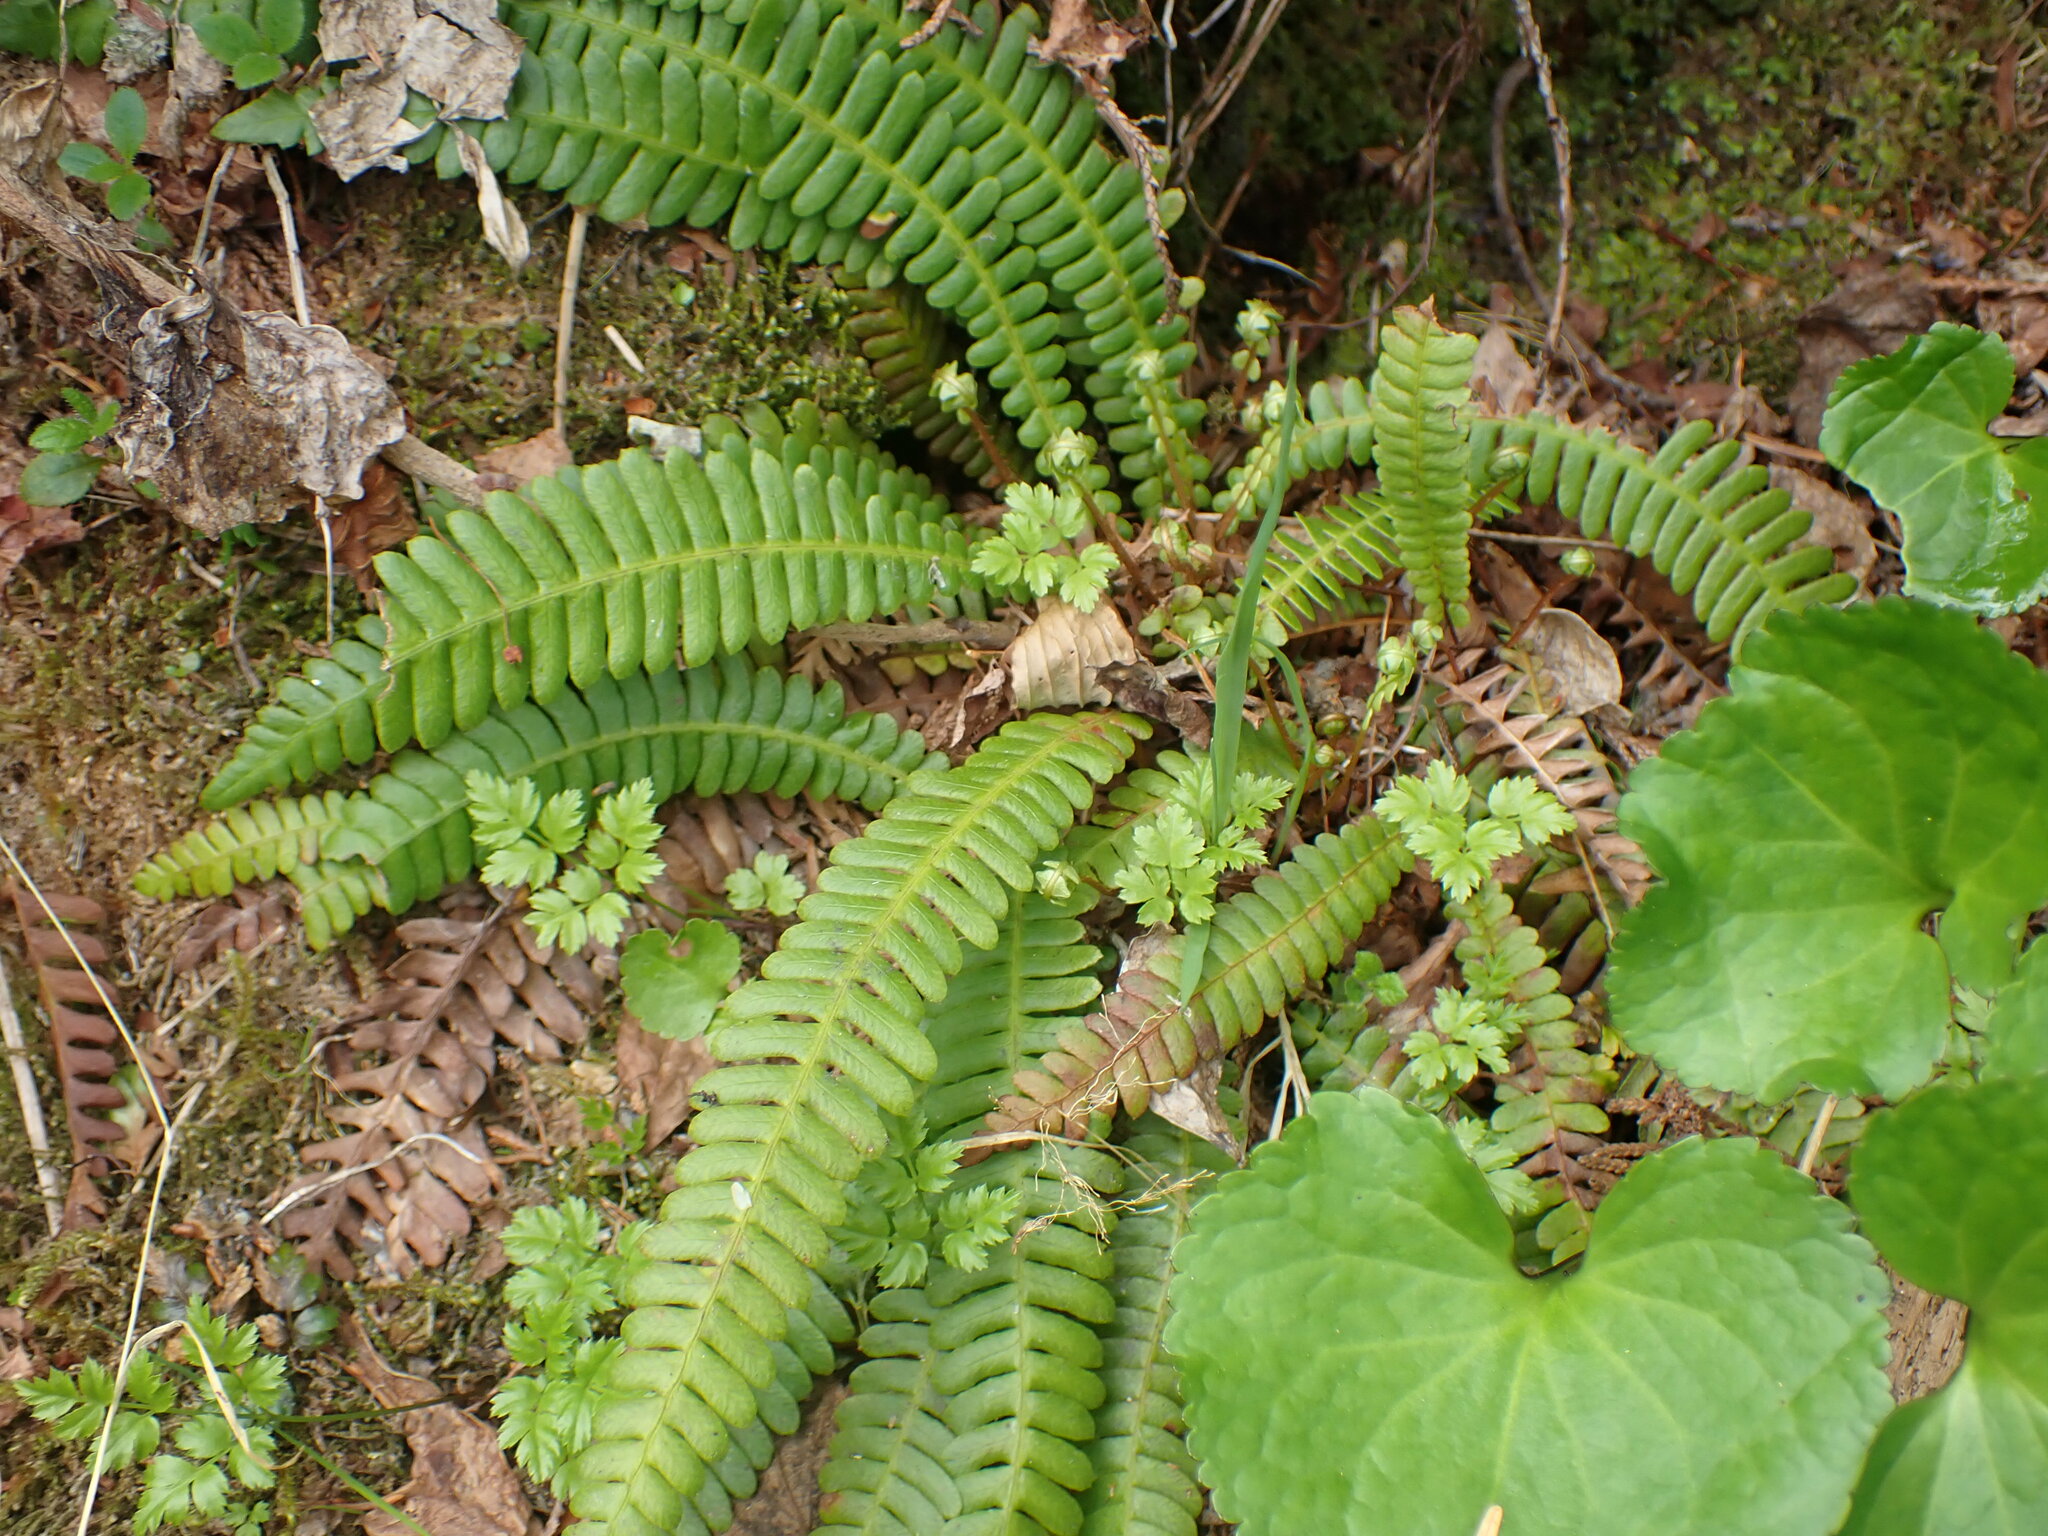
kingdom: Plantae
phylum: Tracheophyta
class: Polypodiopsida
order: Polypodiales
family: Blechnaceae
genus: Struthiopteris
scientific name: Struthiopteris spicant
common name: Deer fern
